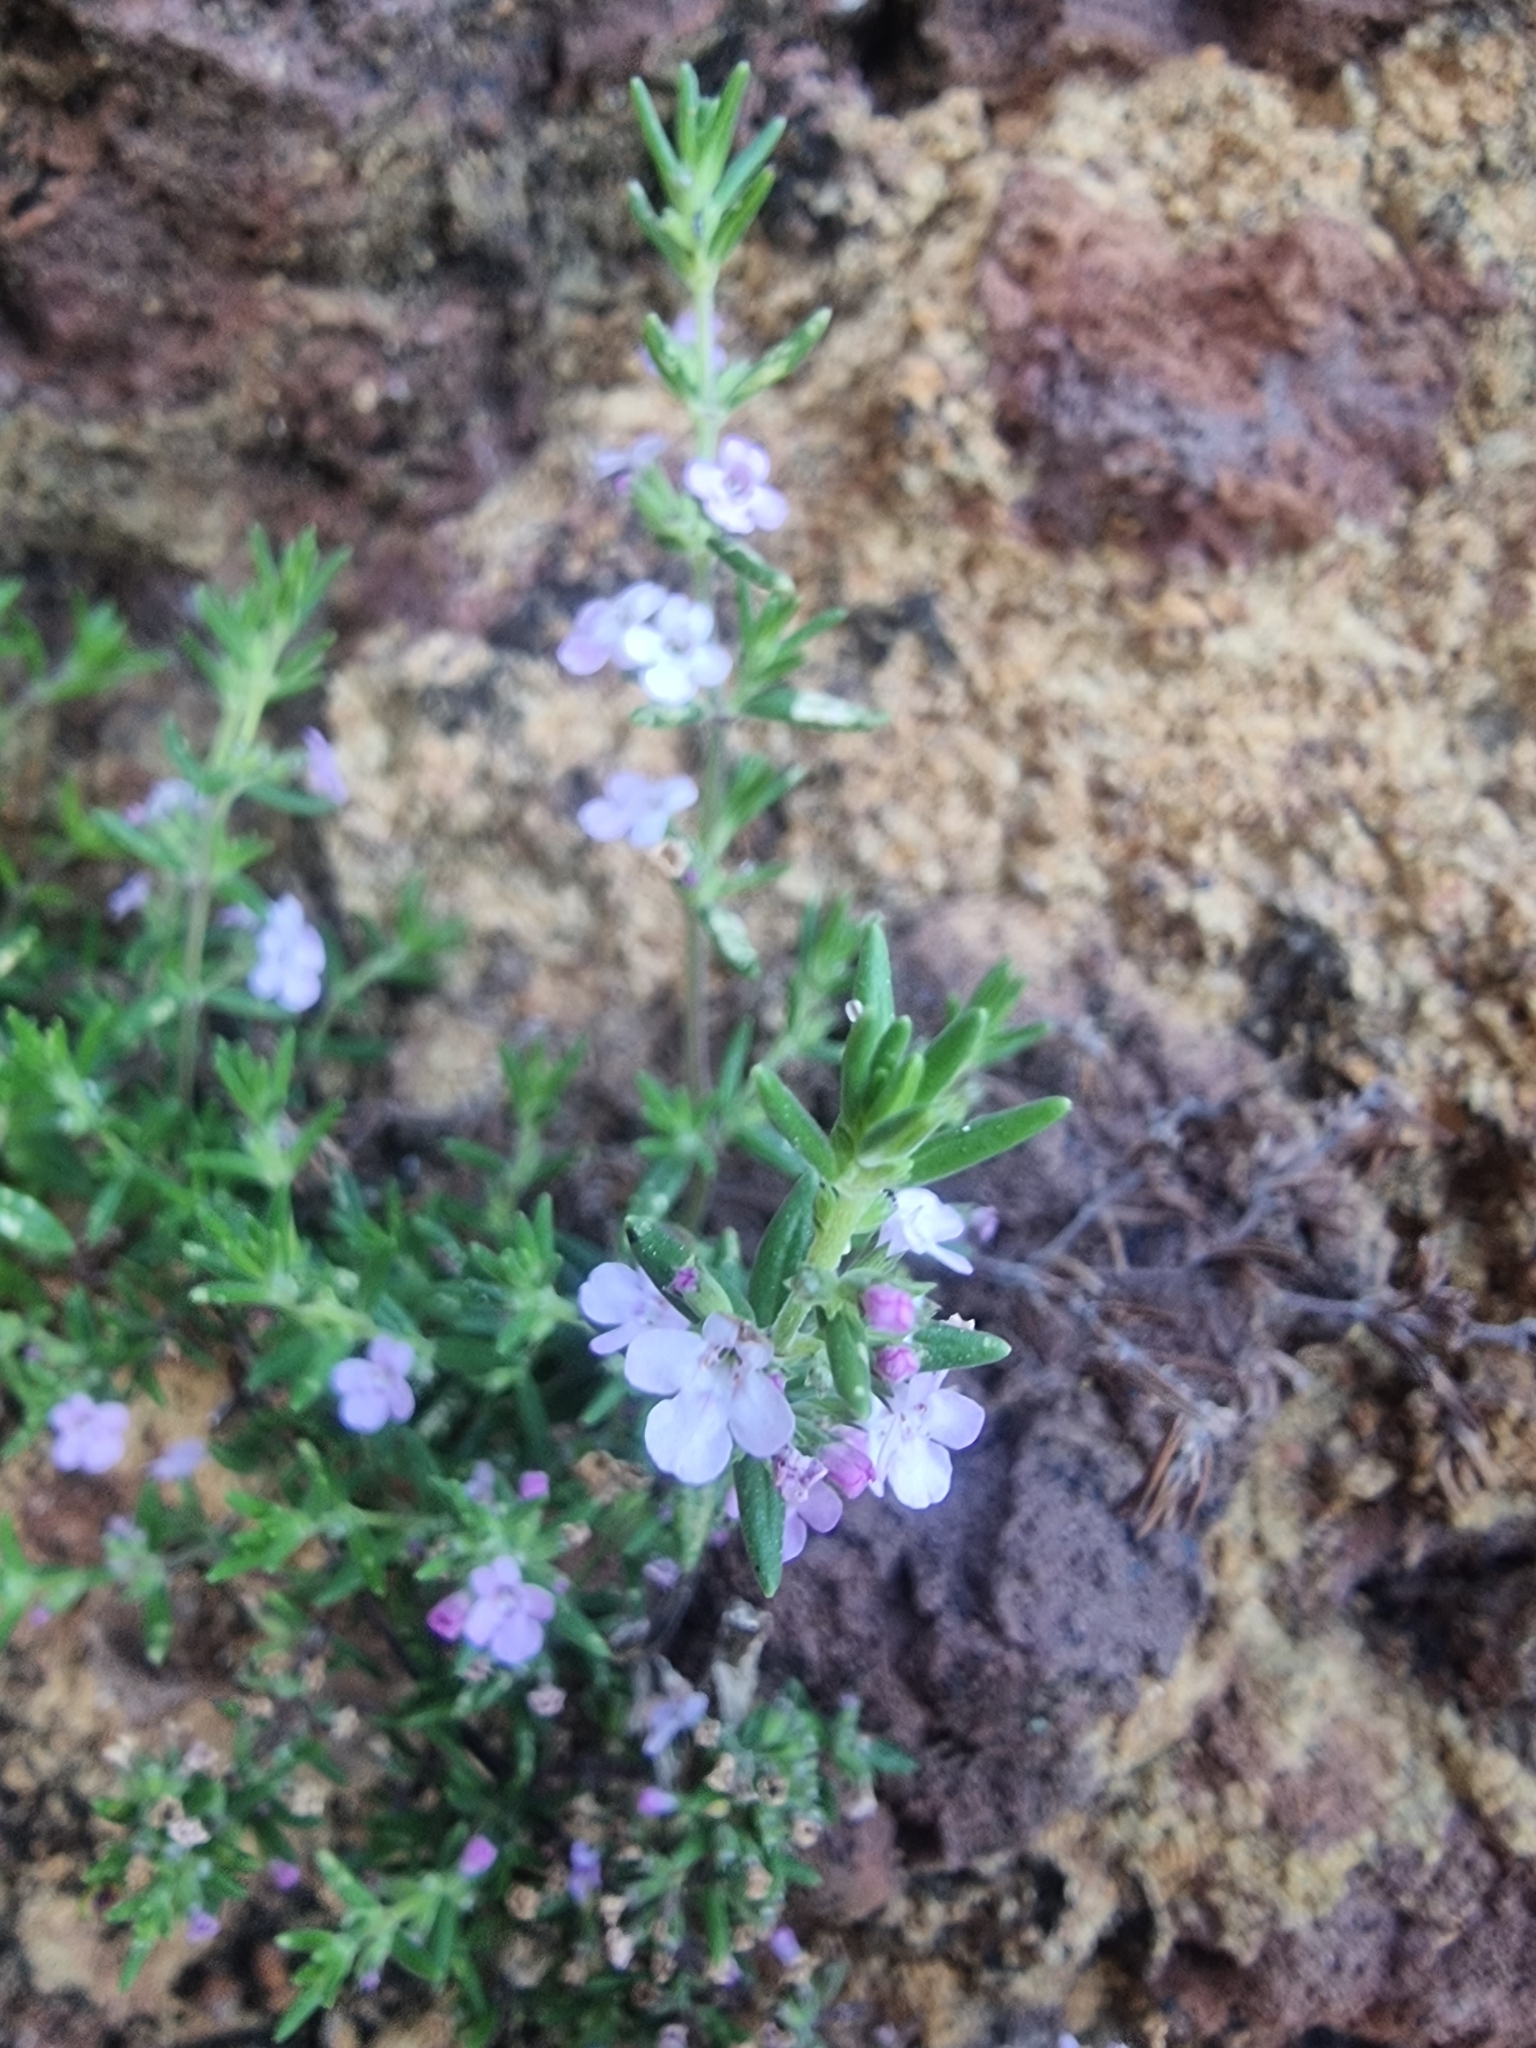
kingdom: Plantae
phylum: Tracheophyta
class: Magnoliopsida
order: Lamiales
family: Lamiaceae
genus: Micromeria
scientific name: Micromeria maderensis
